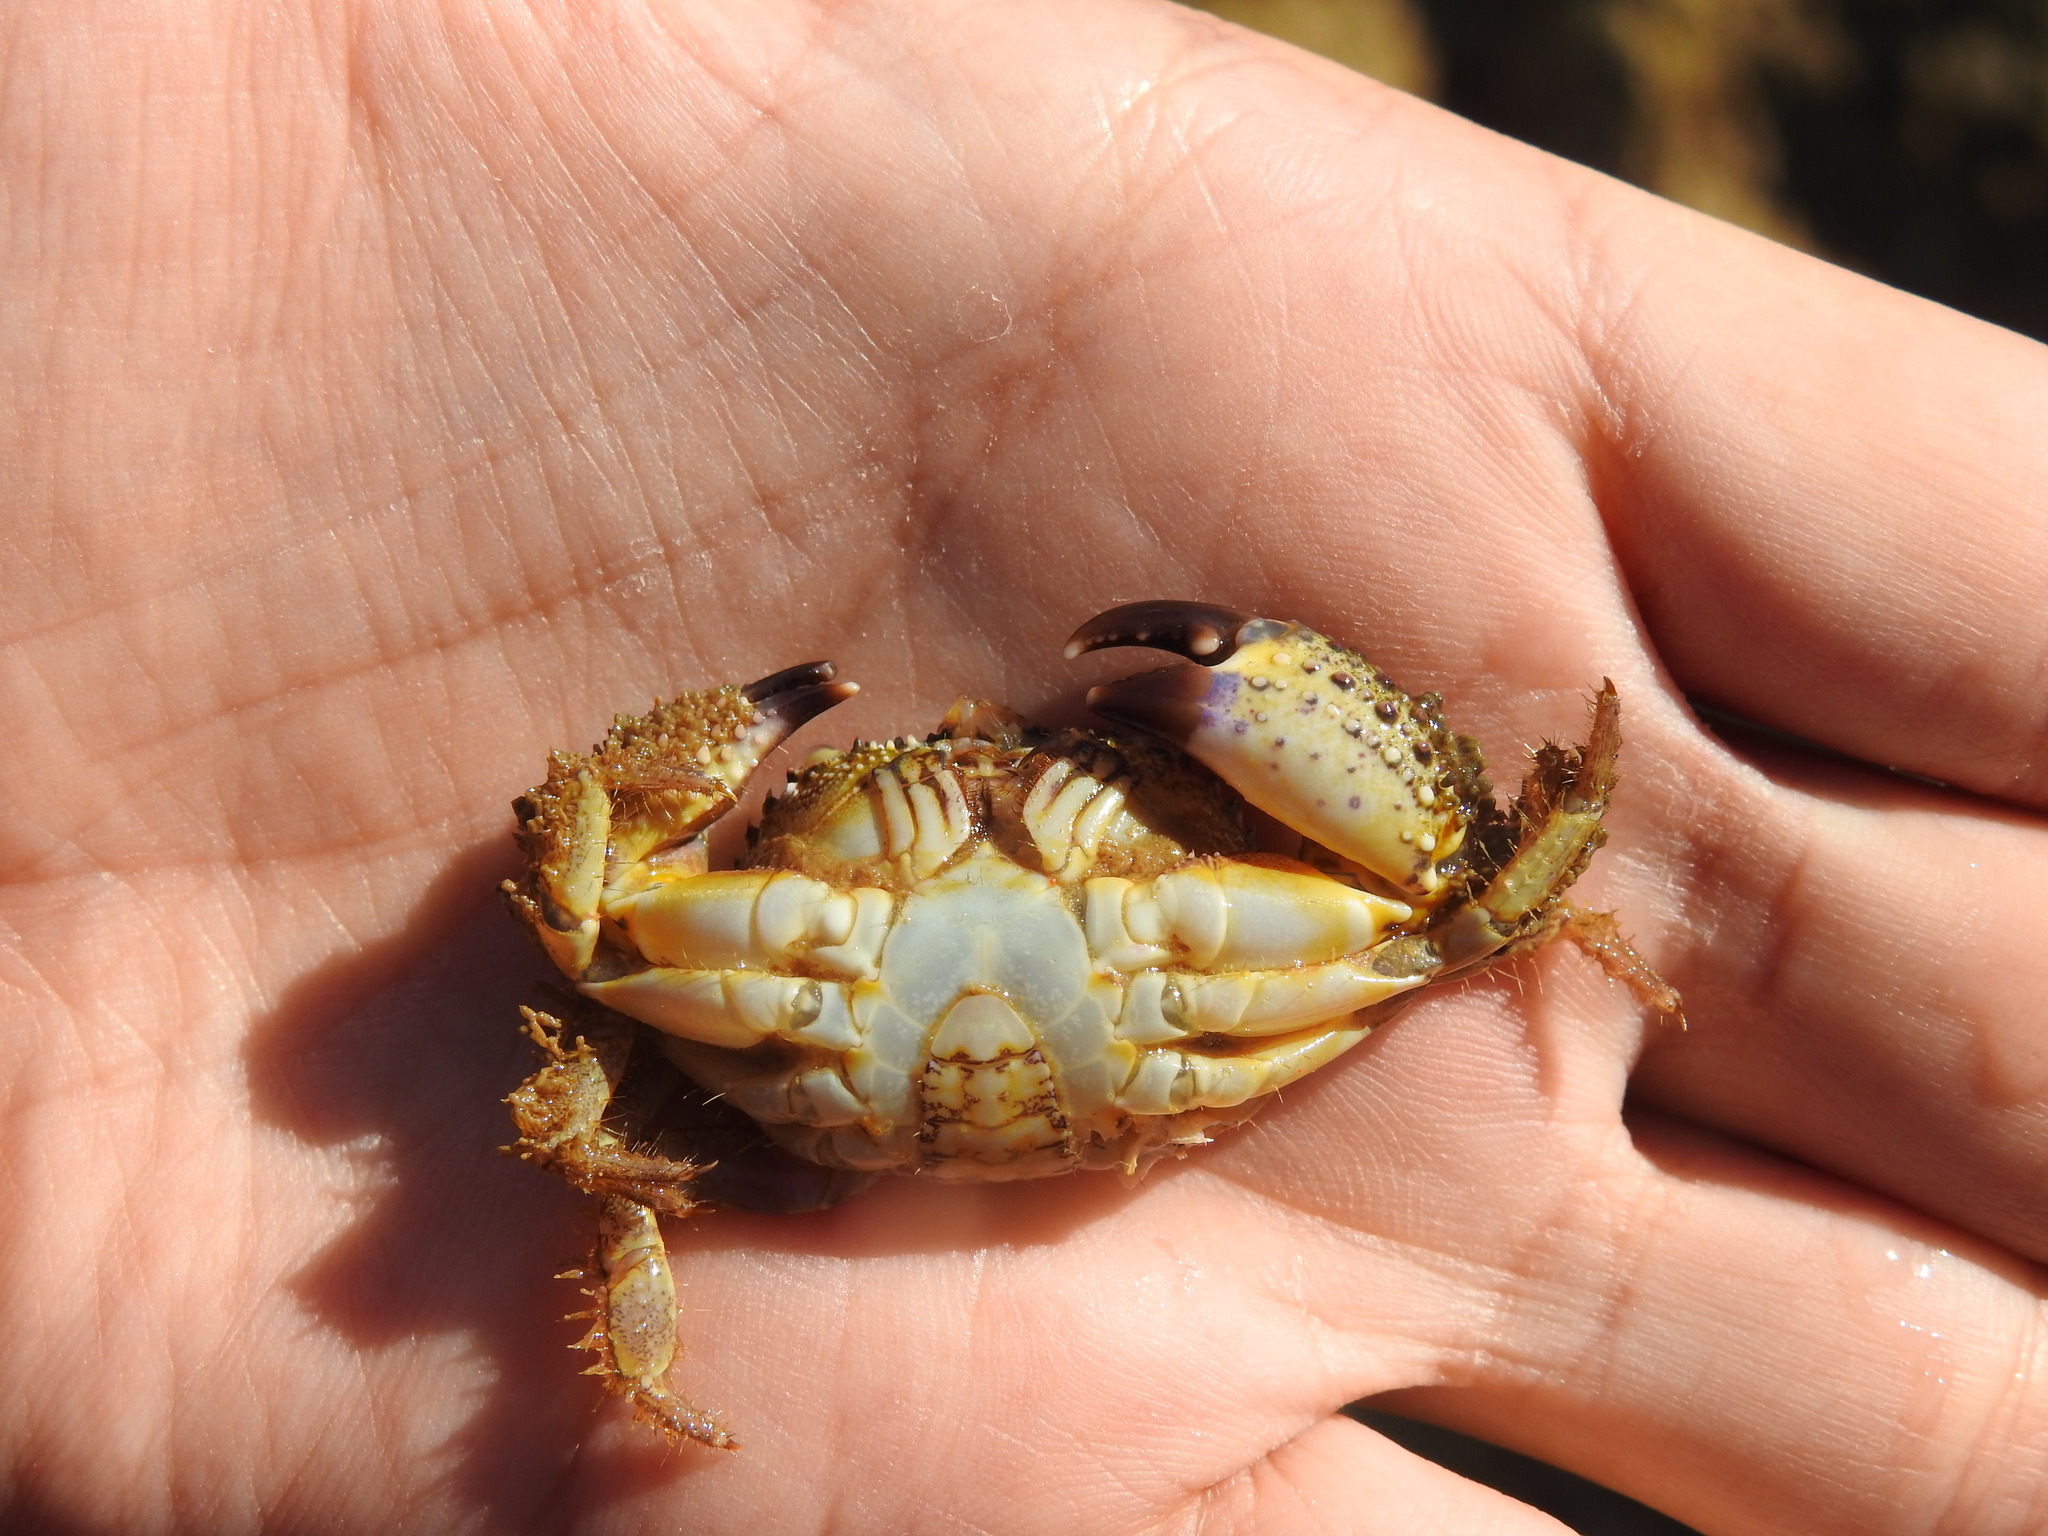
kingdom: Animalia
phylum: Arthropoda
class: Malacostraca
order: Decapoda
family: Eriphiidae
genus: Eriphia
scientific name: Eriphia verrucosa
